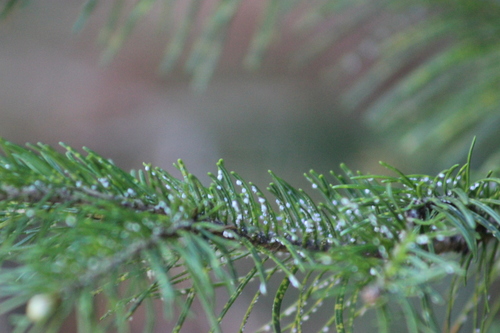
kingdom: Fungi
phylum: Basidiomycota
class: Pucciniomycetes
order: Pucciniales
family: Raveneliaceae
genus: Triphragmium
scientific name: Triphragmium
